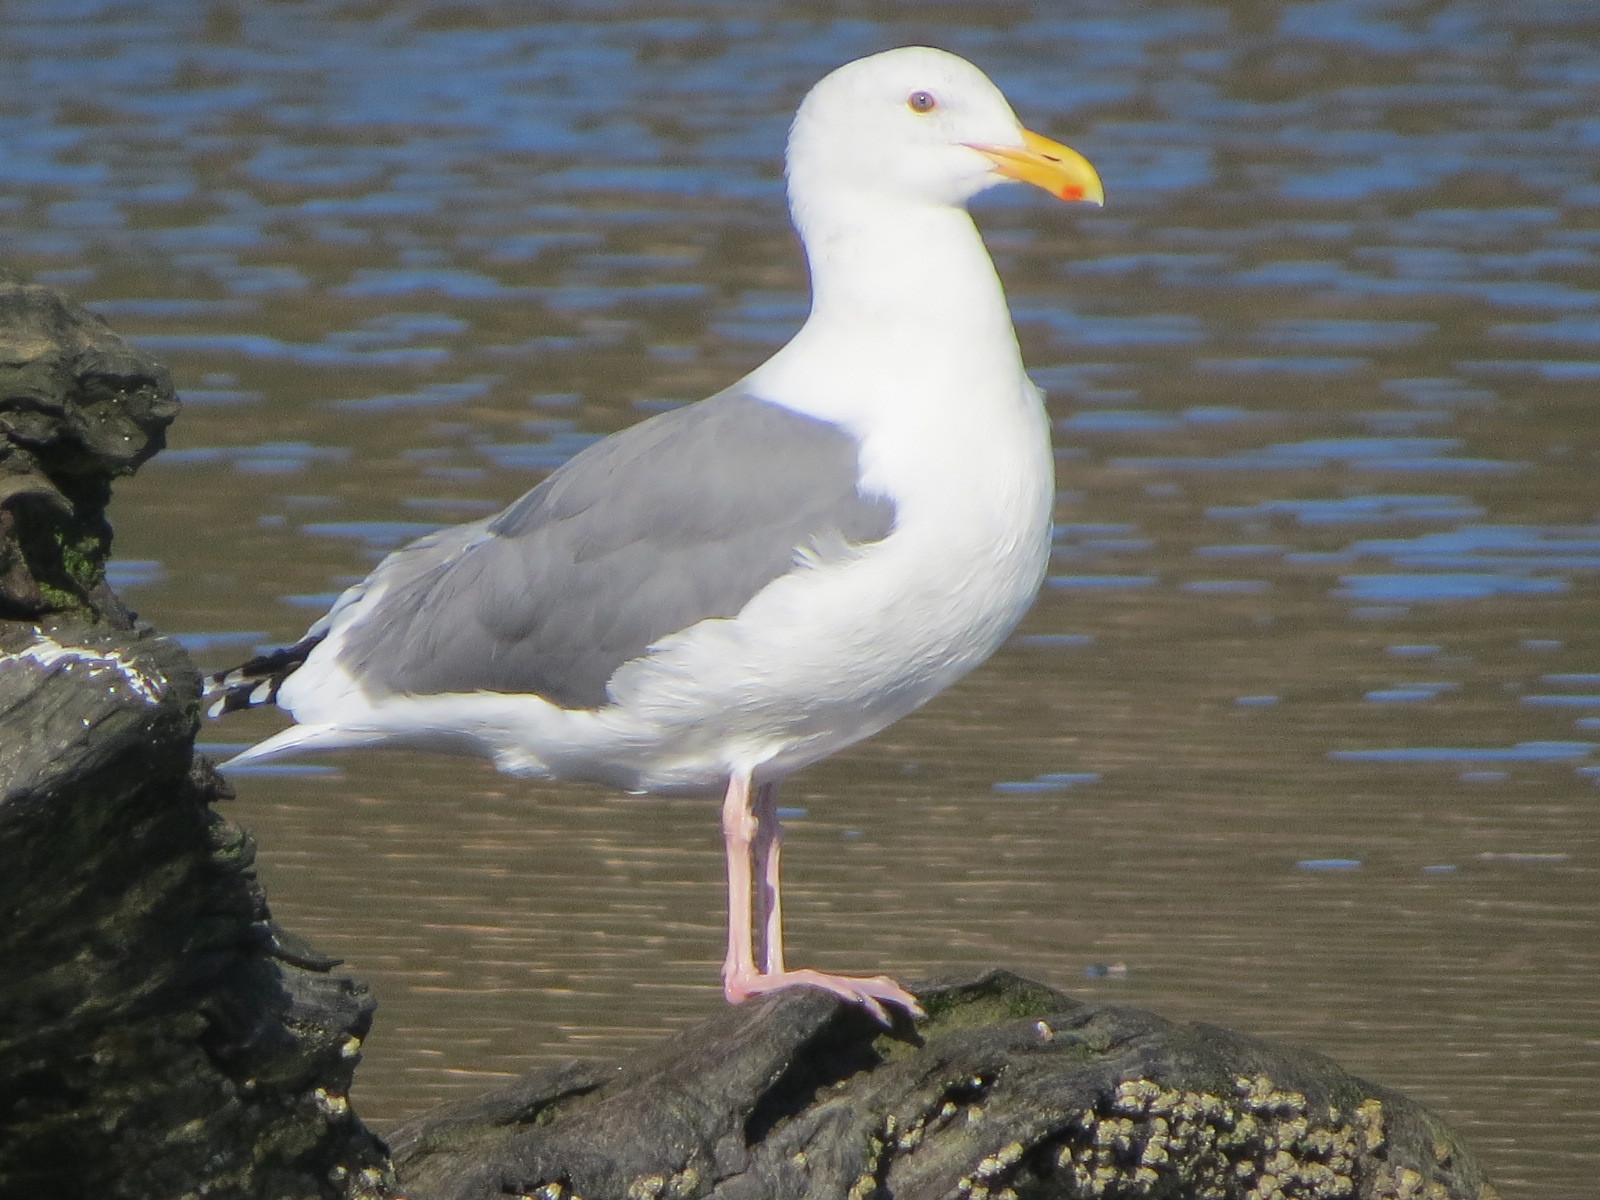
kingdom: Animalia
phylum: Chordata
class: Aves
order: Charadriiformes
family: Laridae
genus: Larus
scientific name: Larus occidentalis
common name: Western gull
